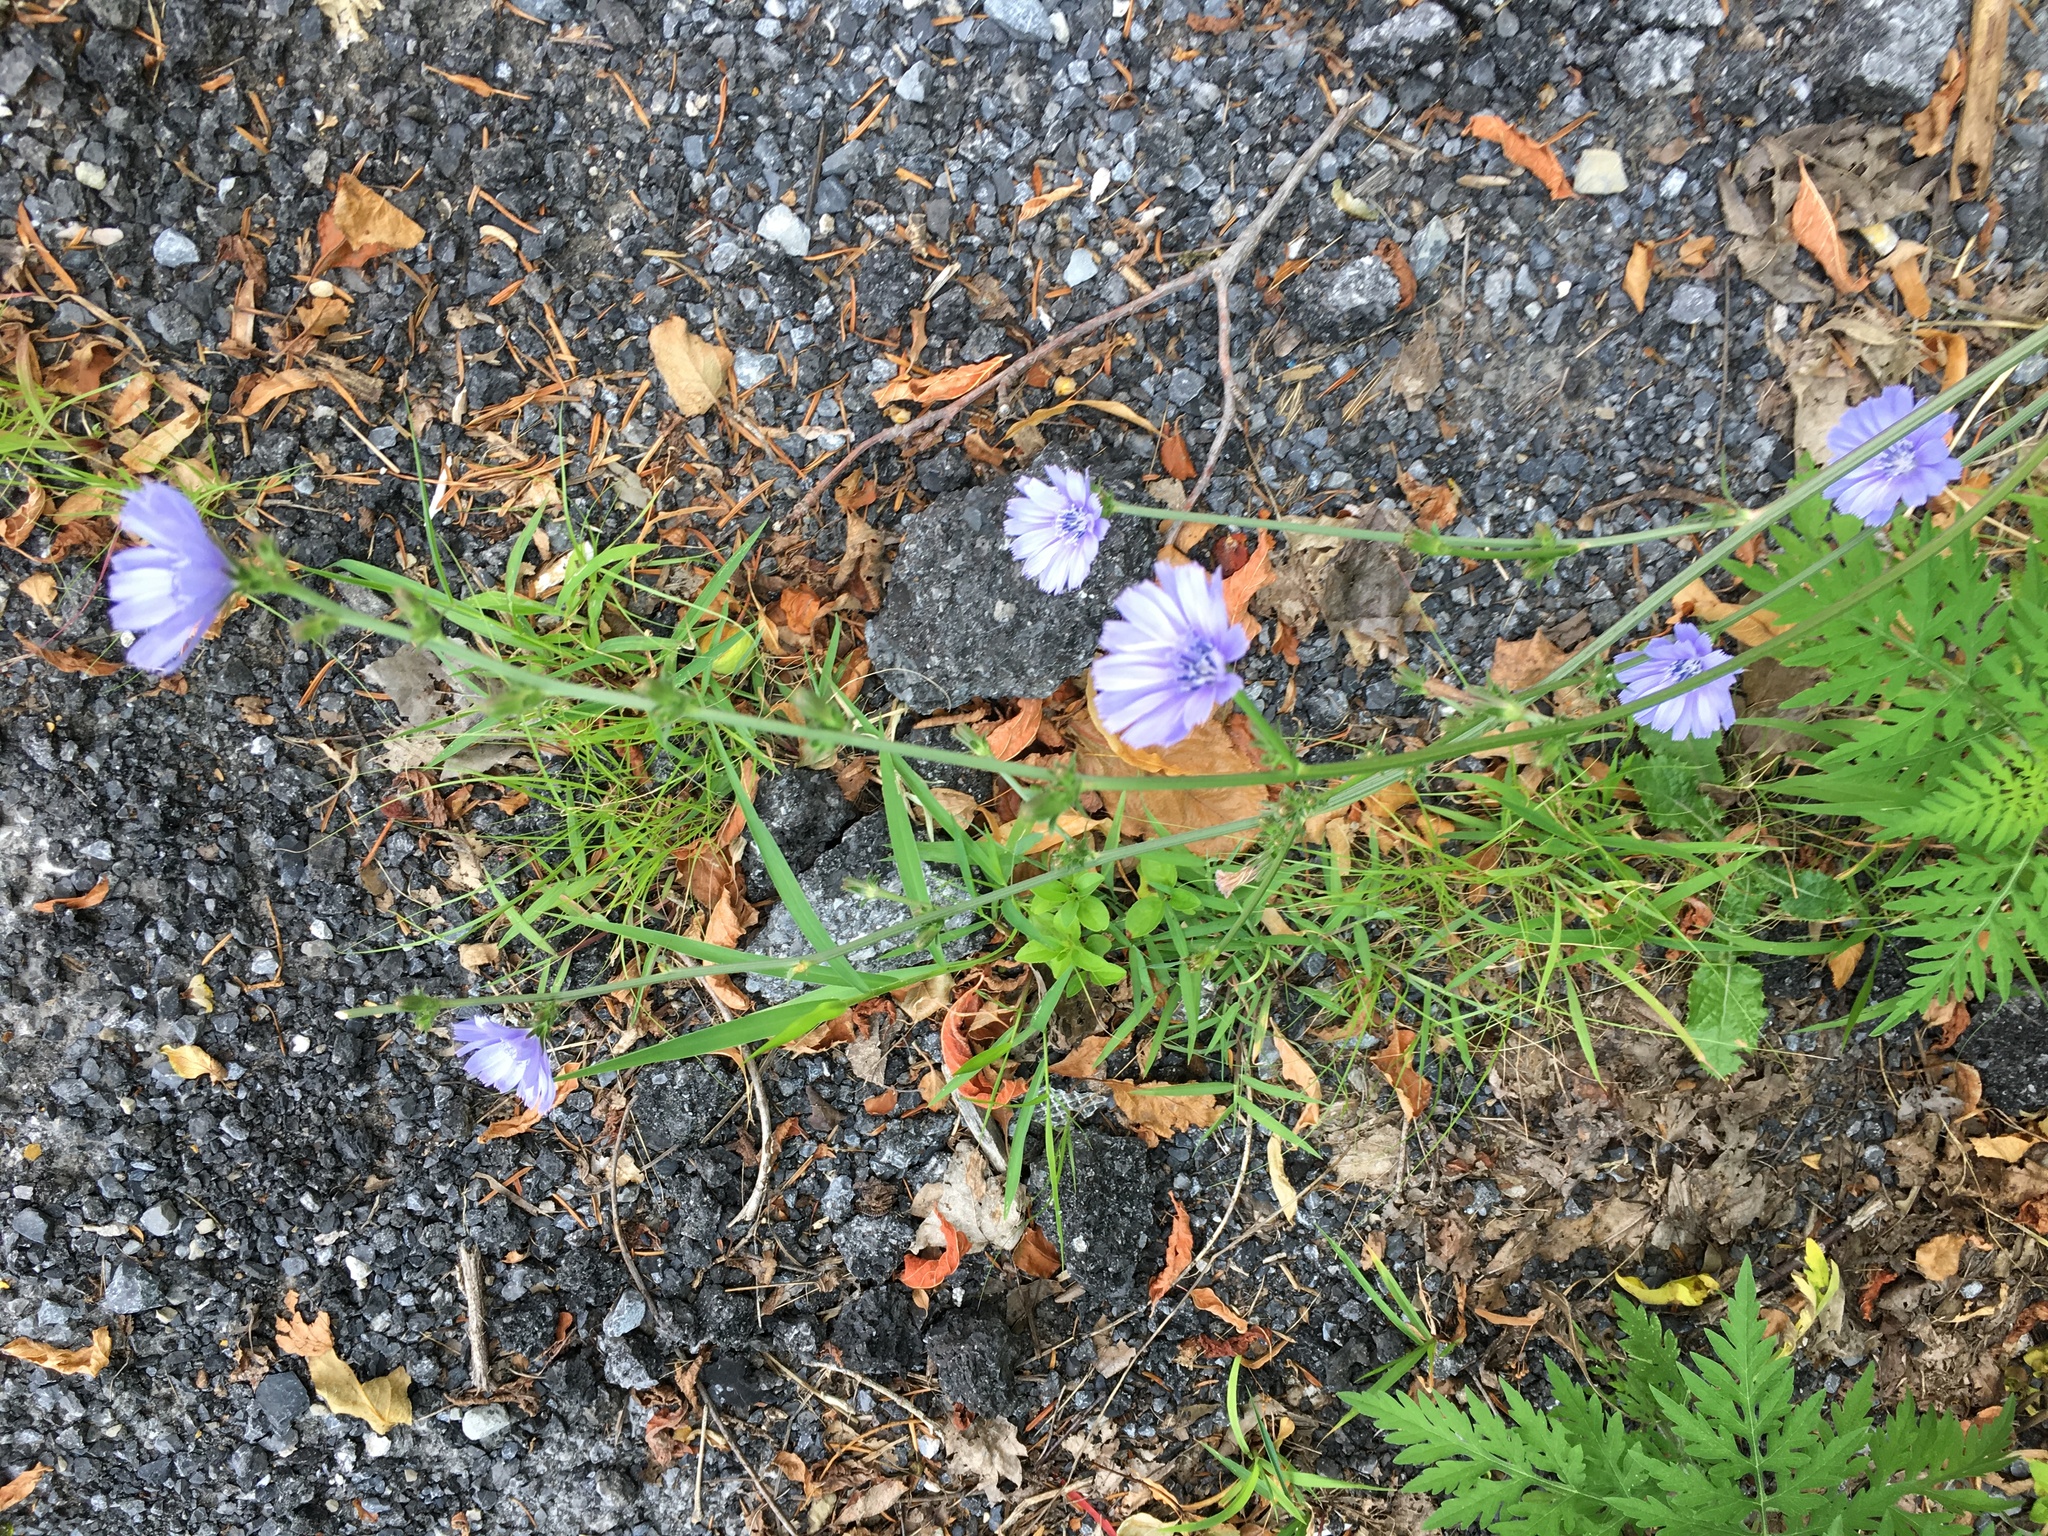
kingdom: Plantae
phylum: Tracheophyta
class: Magnoliopsida
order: Asterales
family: Asteraceae
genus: Cichorium
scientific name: Cichorium intybus
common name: Chicory
